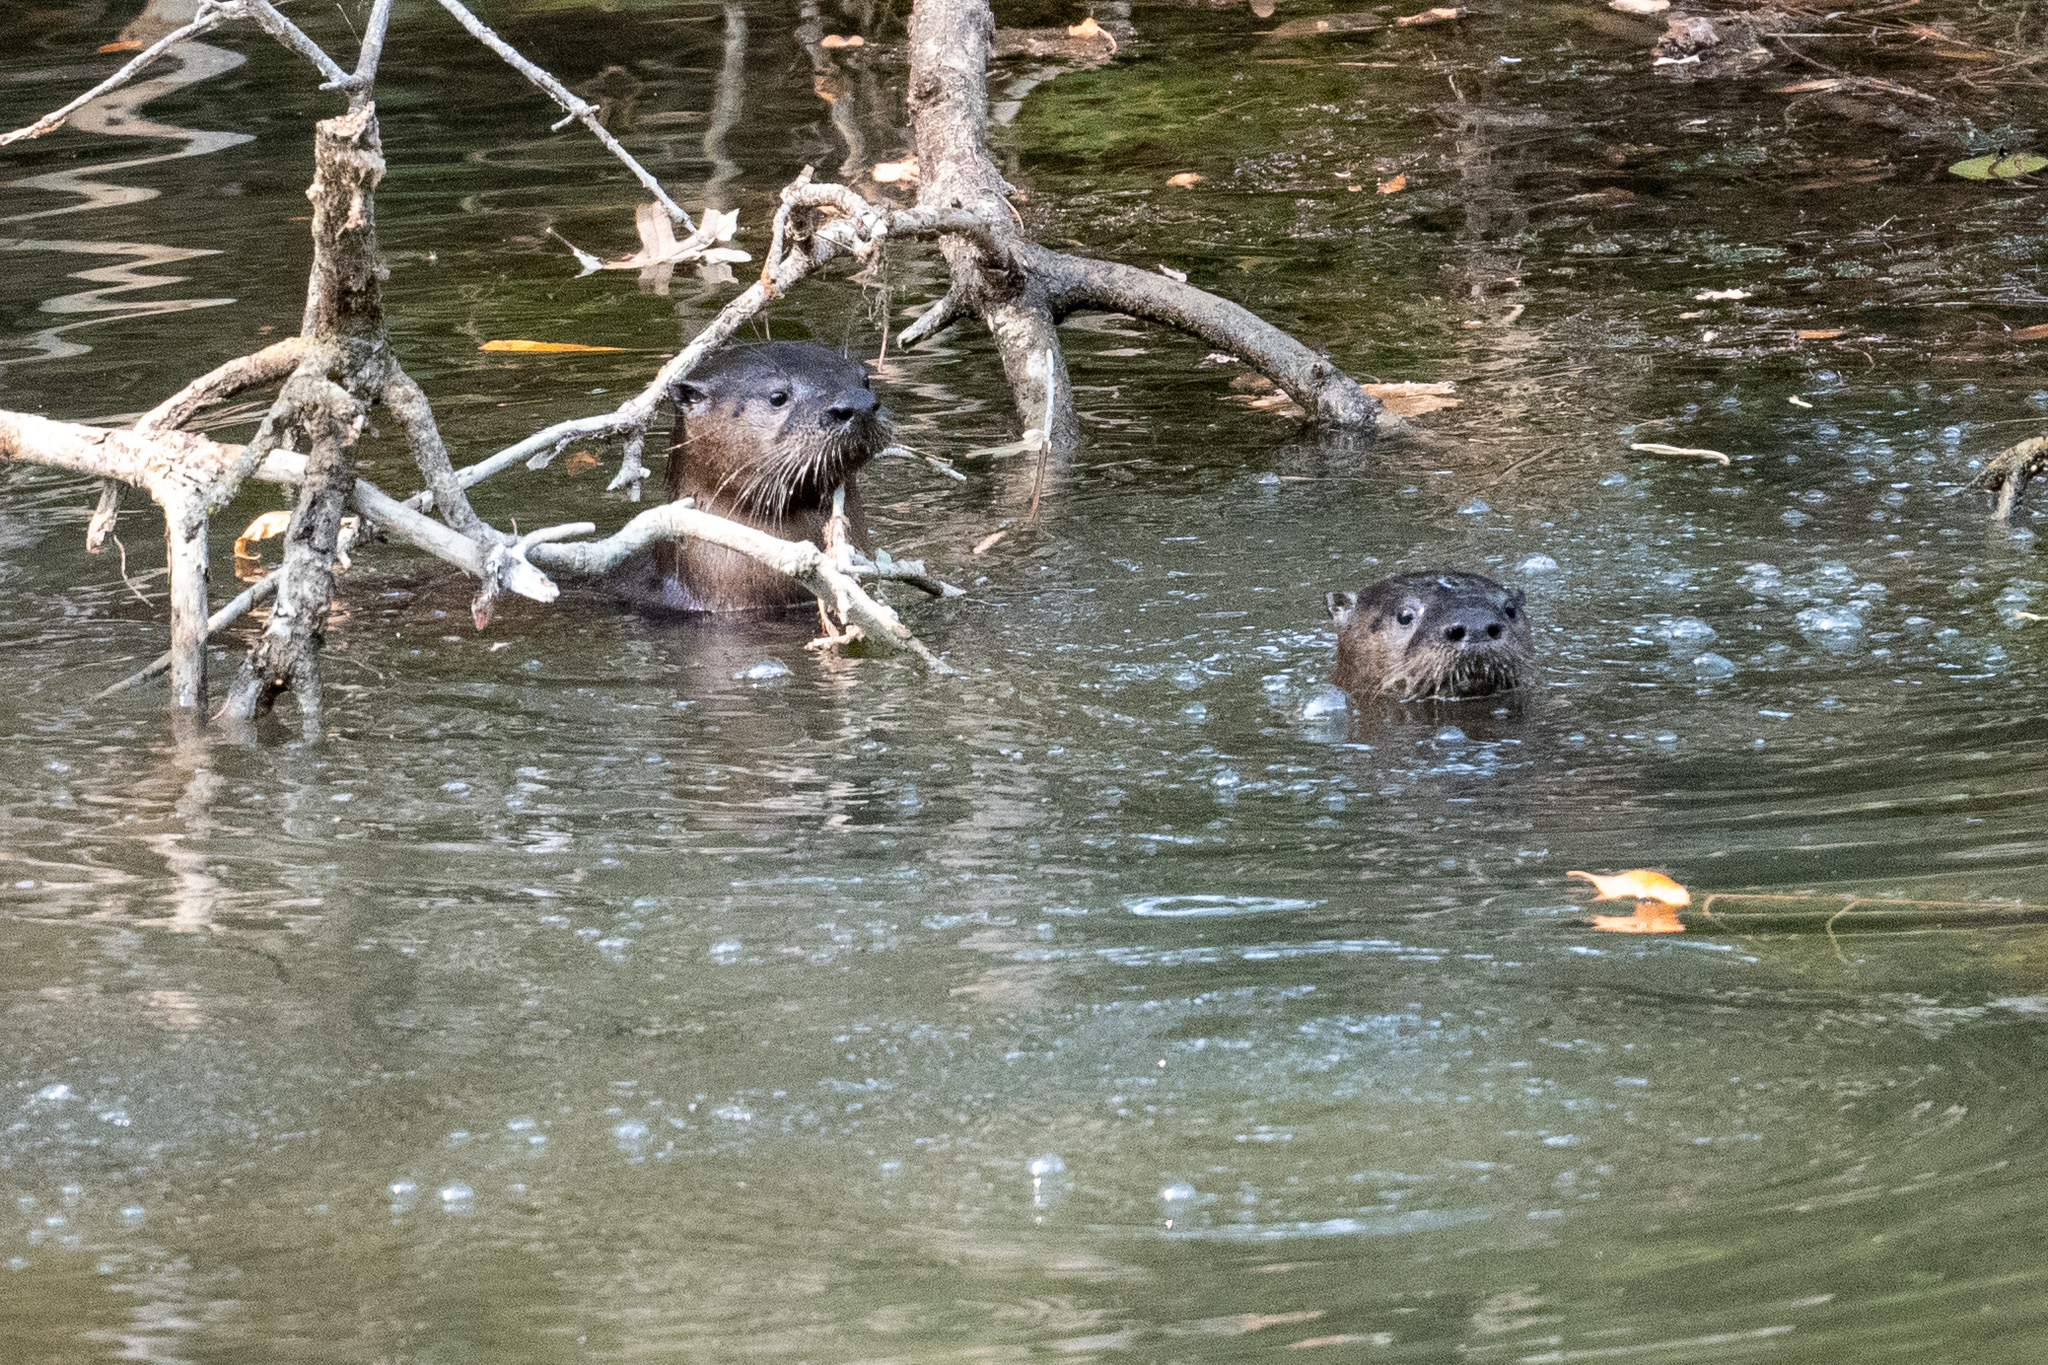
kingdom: Animalia
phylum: Chordata
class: Mammalia
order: Carnivora
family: Mustelidae
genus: Lontra
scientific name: Lontra canadensis
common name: North american river otter
